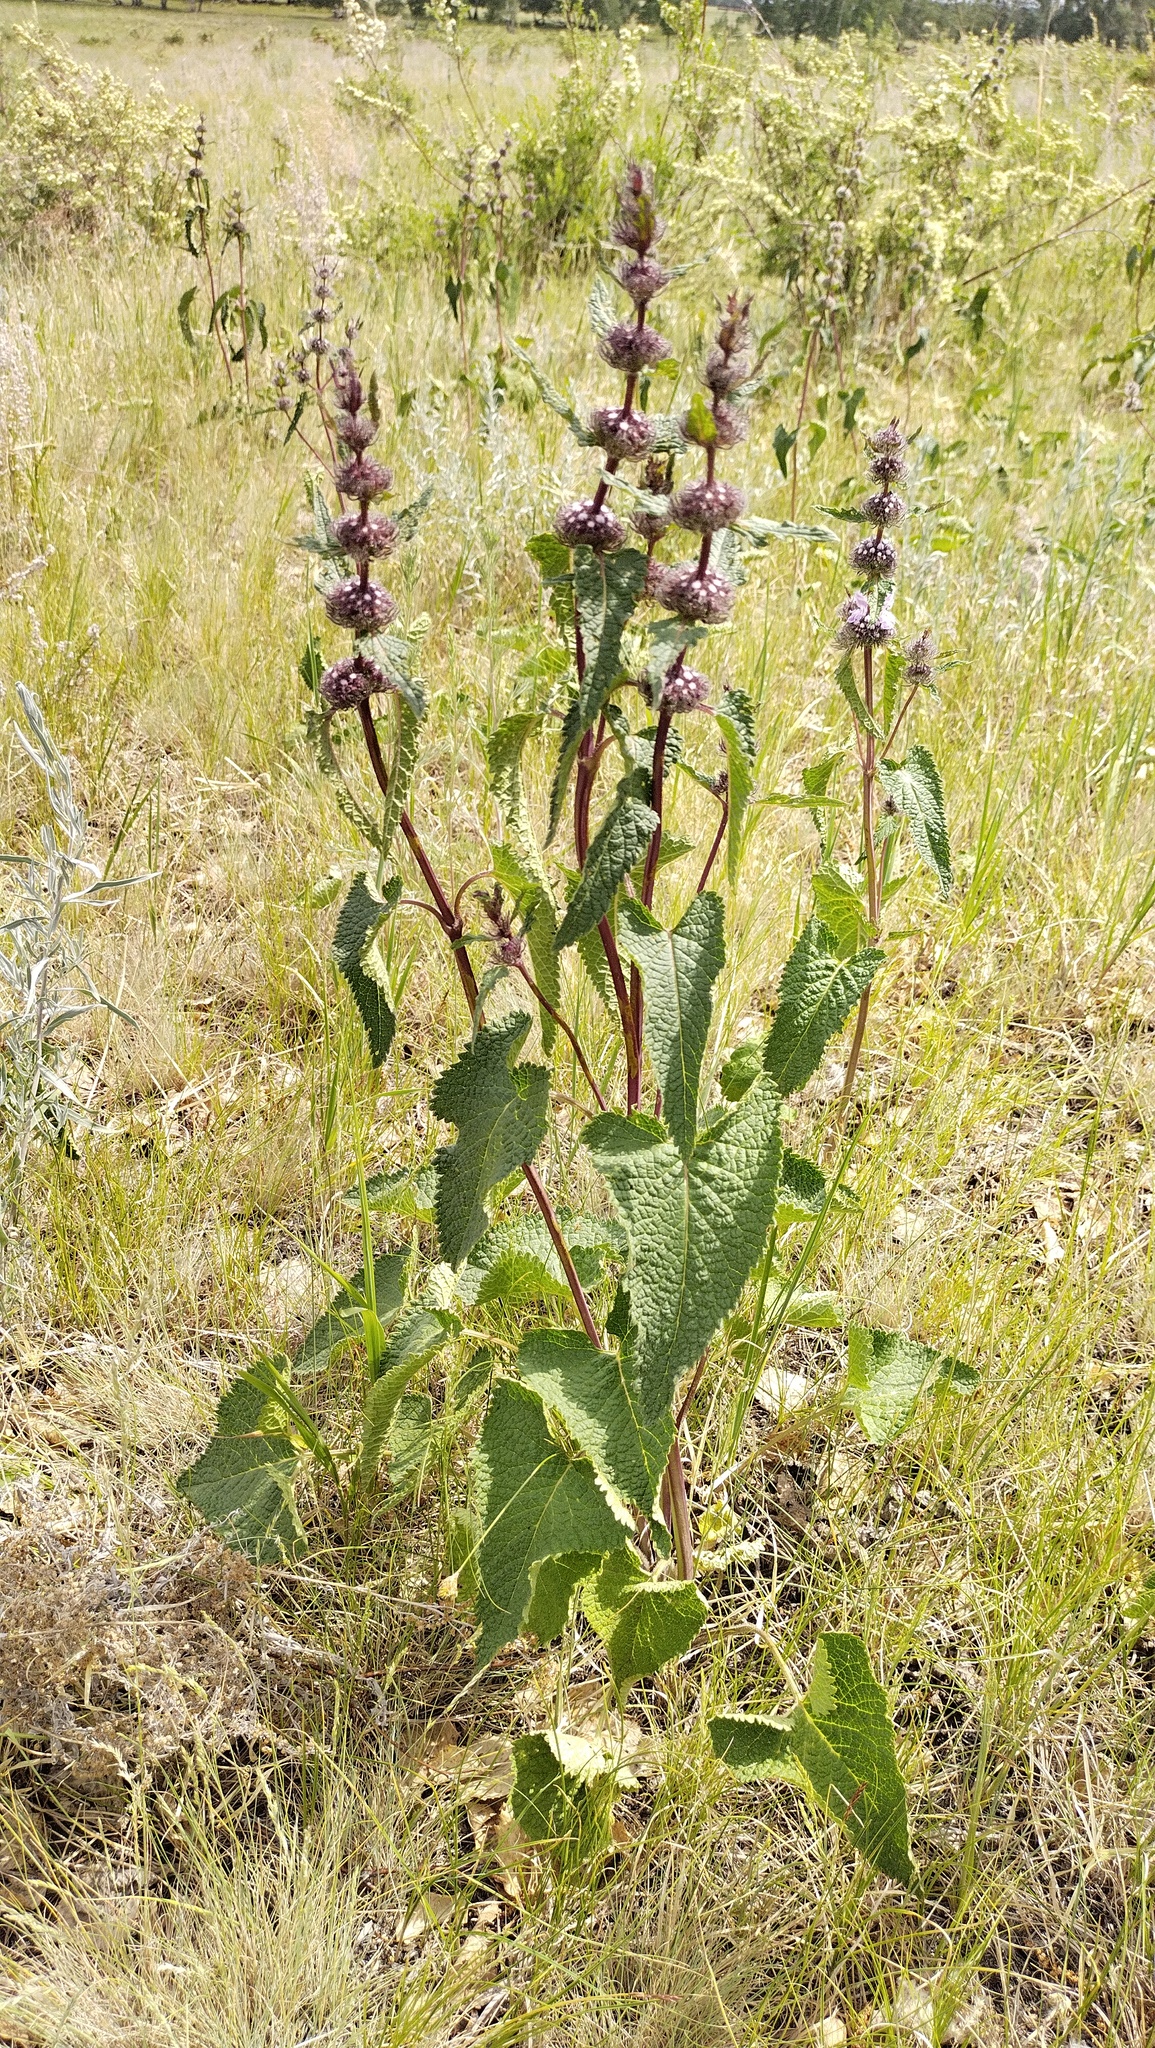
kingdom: Plantae
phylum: Tracheophyta
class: Magnoliopsida
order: Lamiales
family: Lamiaceae
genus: Phlomoides
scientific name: Phlomoides tuberosa
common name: Tuberous jerusalem sage
